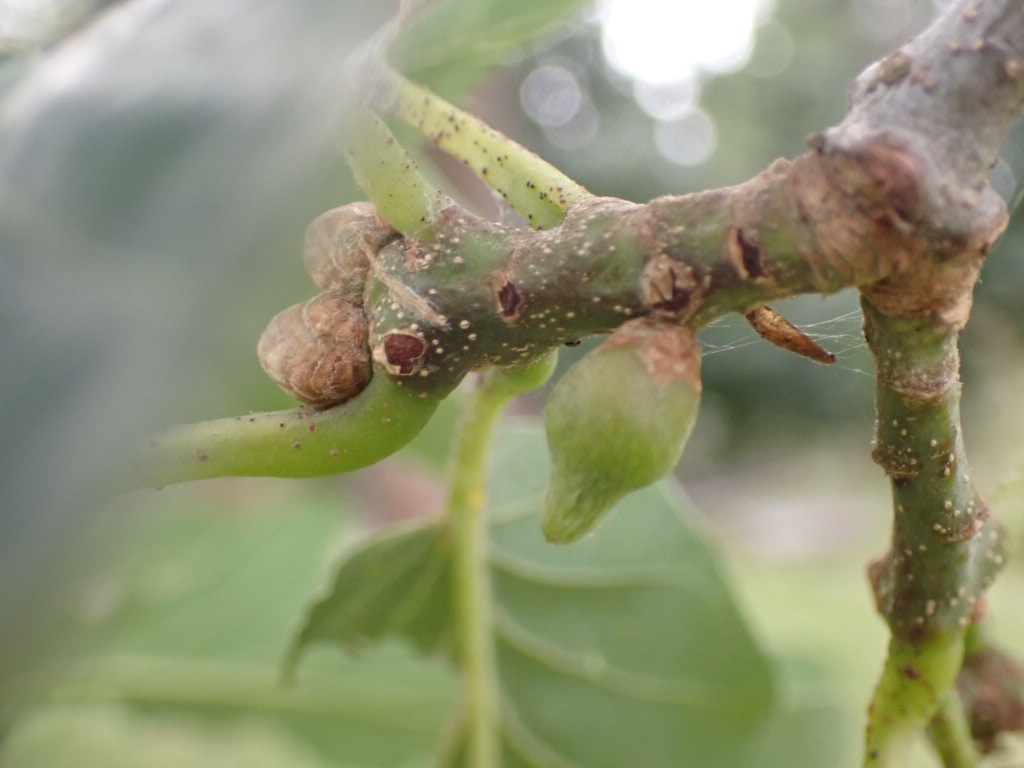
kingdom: Animalia
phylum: Arthropoda
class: Insecta
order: Hymenoptera
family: Cynipidae
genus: Andricus
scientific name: Andricus glandulae
